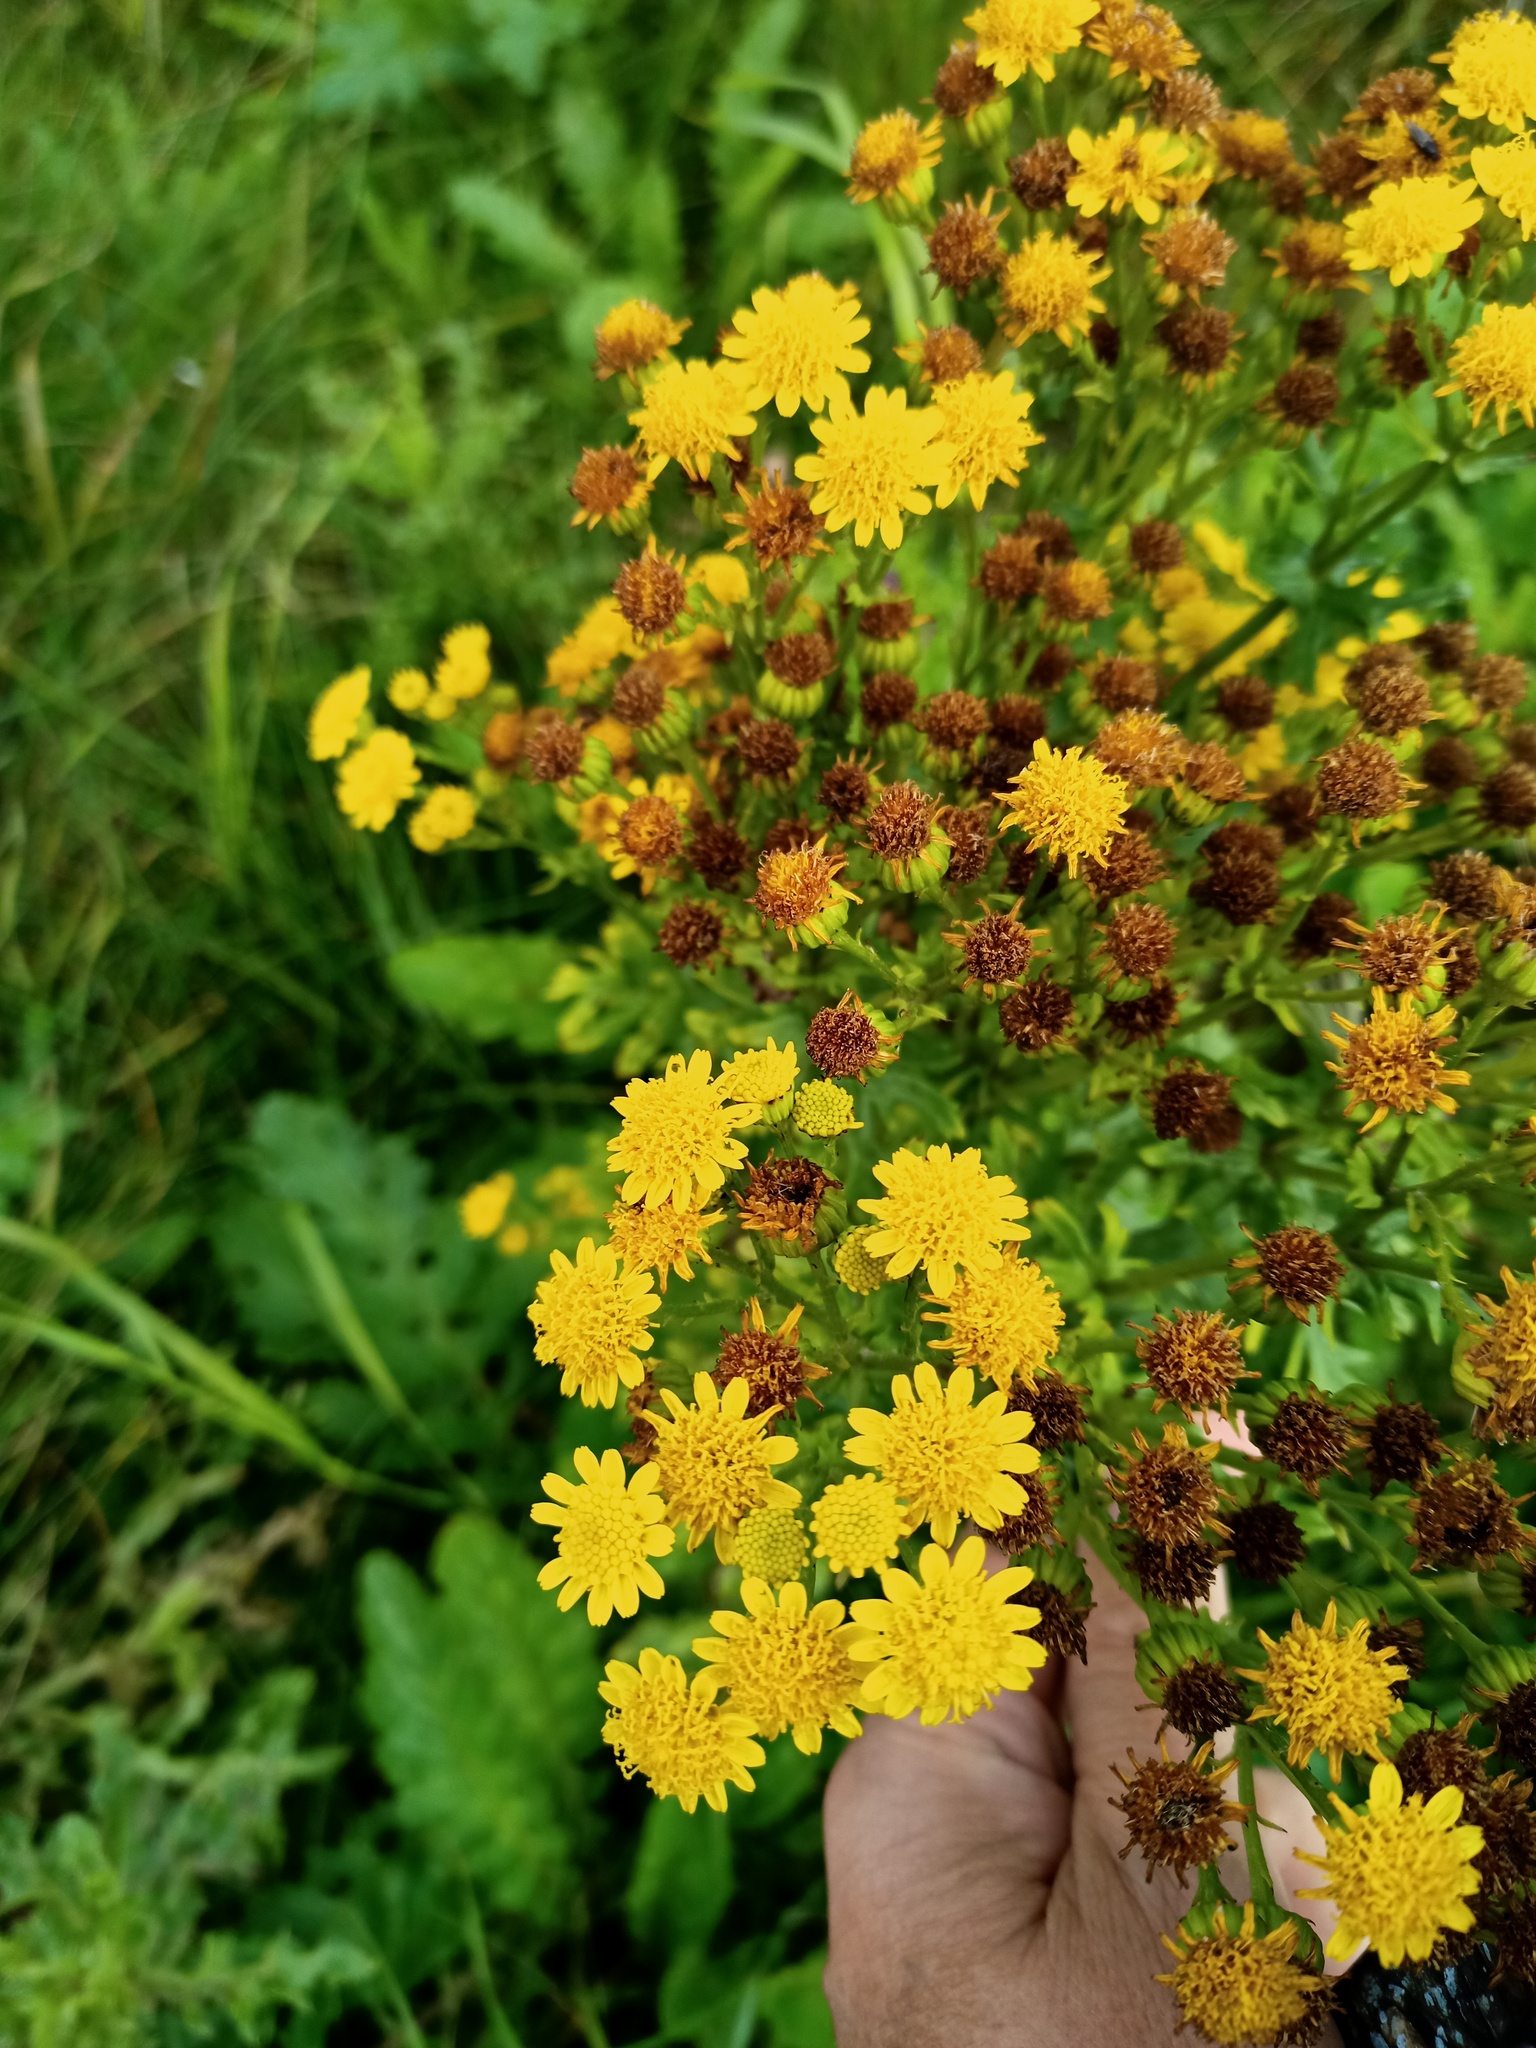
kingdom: Plantae
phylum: Tracheophyta
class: Magnoliopsida
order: Asterales
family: Asteraceae
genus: Jacobaea
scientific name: Jacobaea vulgaris
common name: Stinking willie
